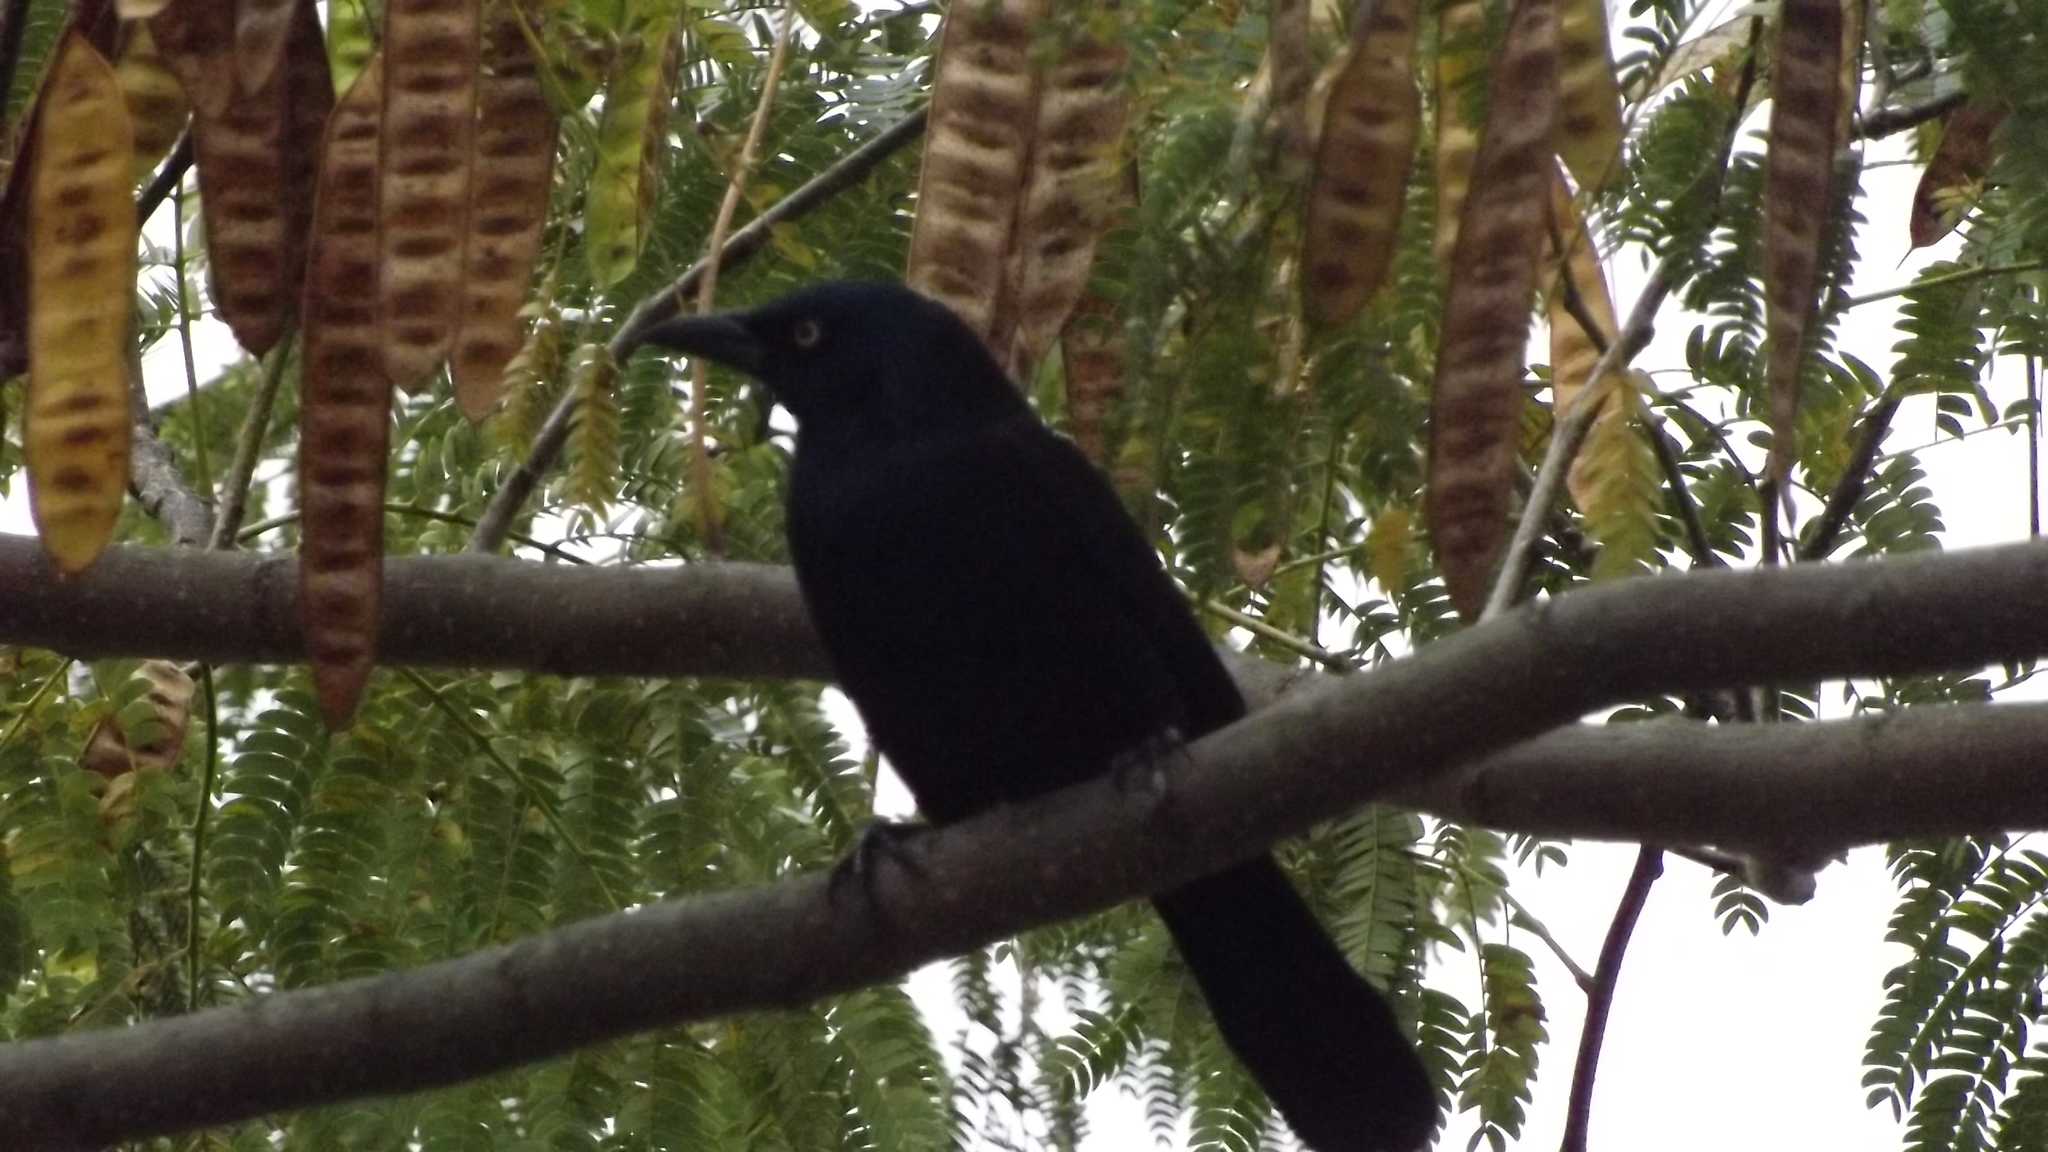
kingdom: Animalia
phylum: Chordata
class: Aves
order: Passeriformes
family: Icteridae
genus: Quiscalus
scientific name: Quiscalus quiscula
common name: Common grackle
